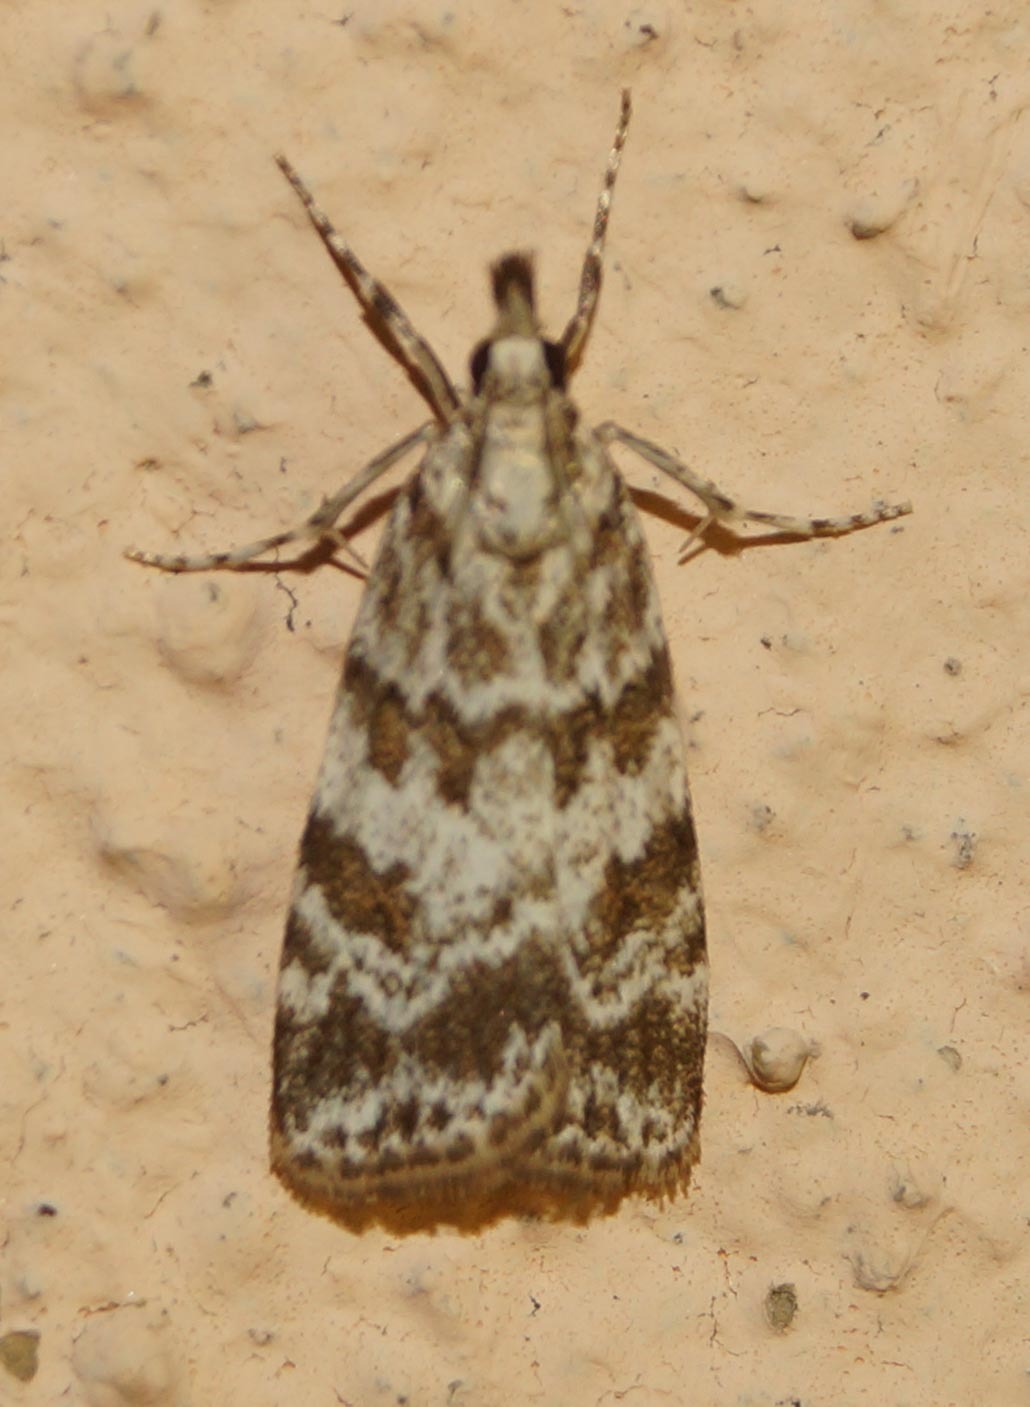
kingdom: Animalia
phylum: Arthropoda
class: Insecta
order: Lepidoptera
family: Crambidae
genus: Scoparia
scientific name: Scoparia pyralella
